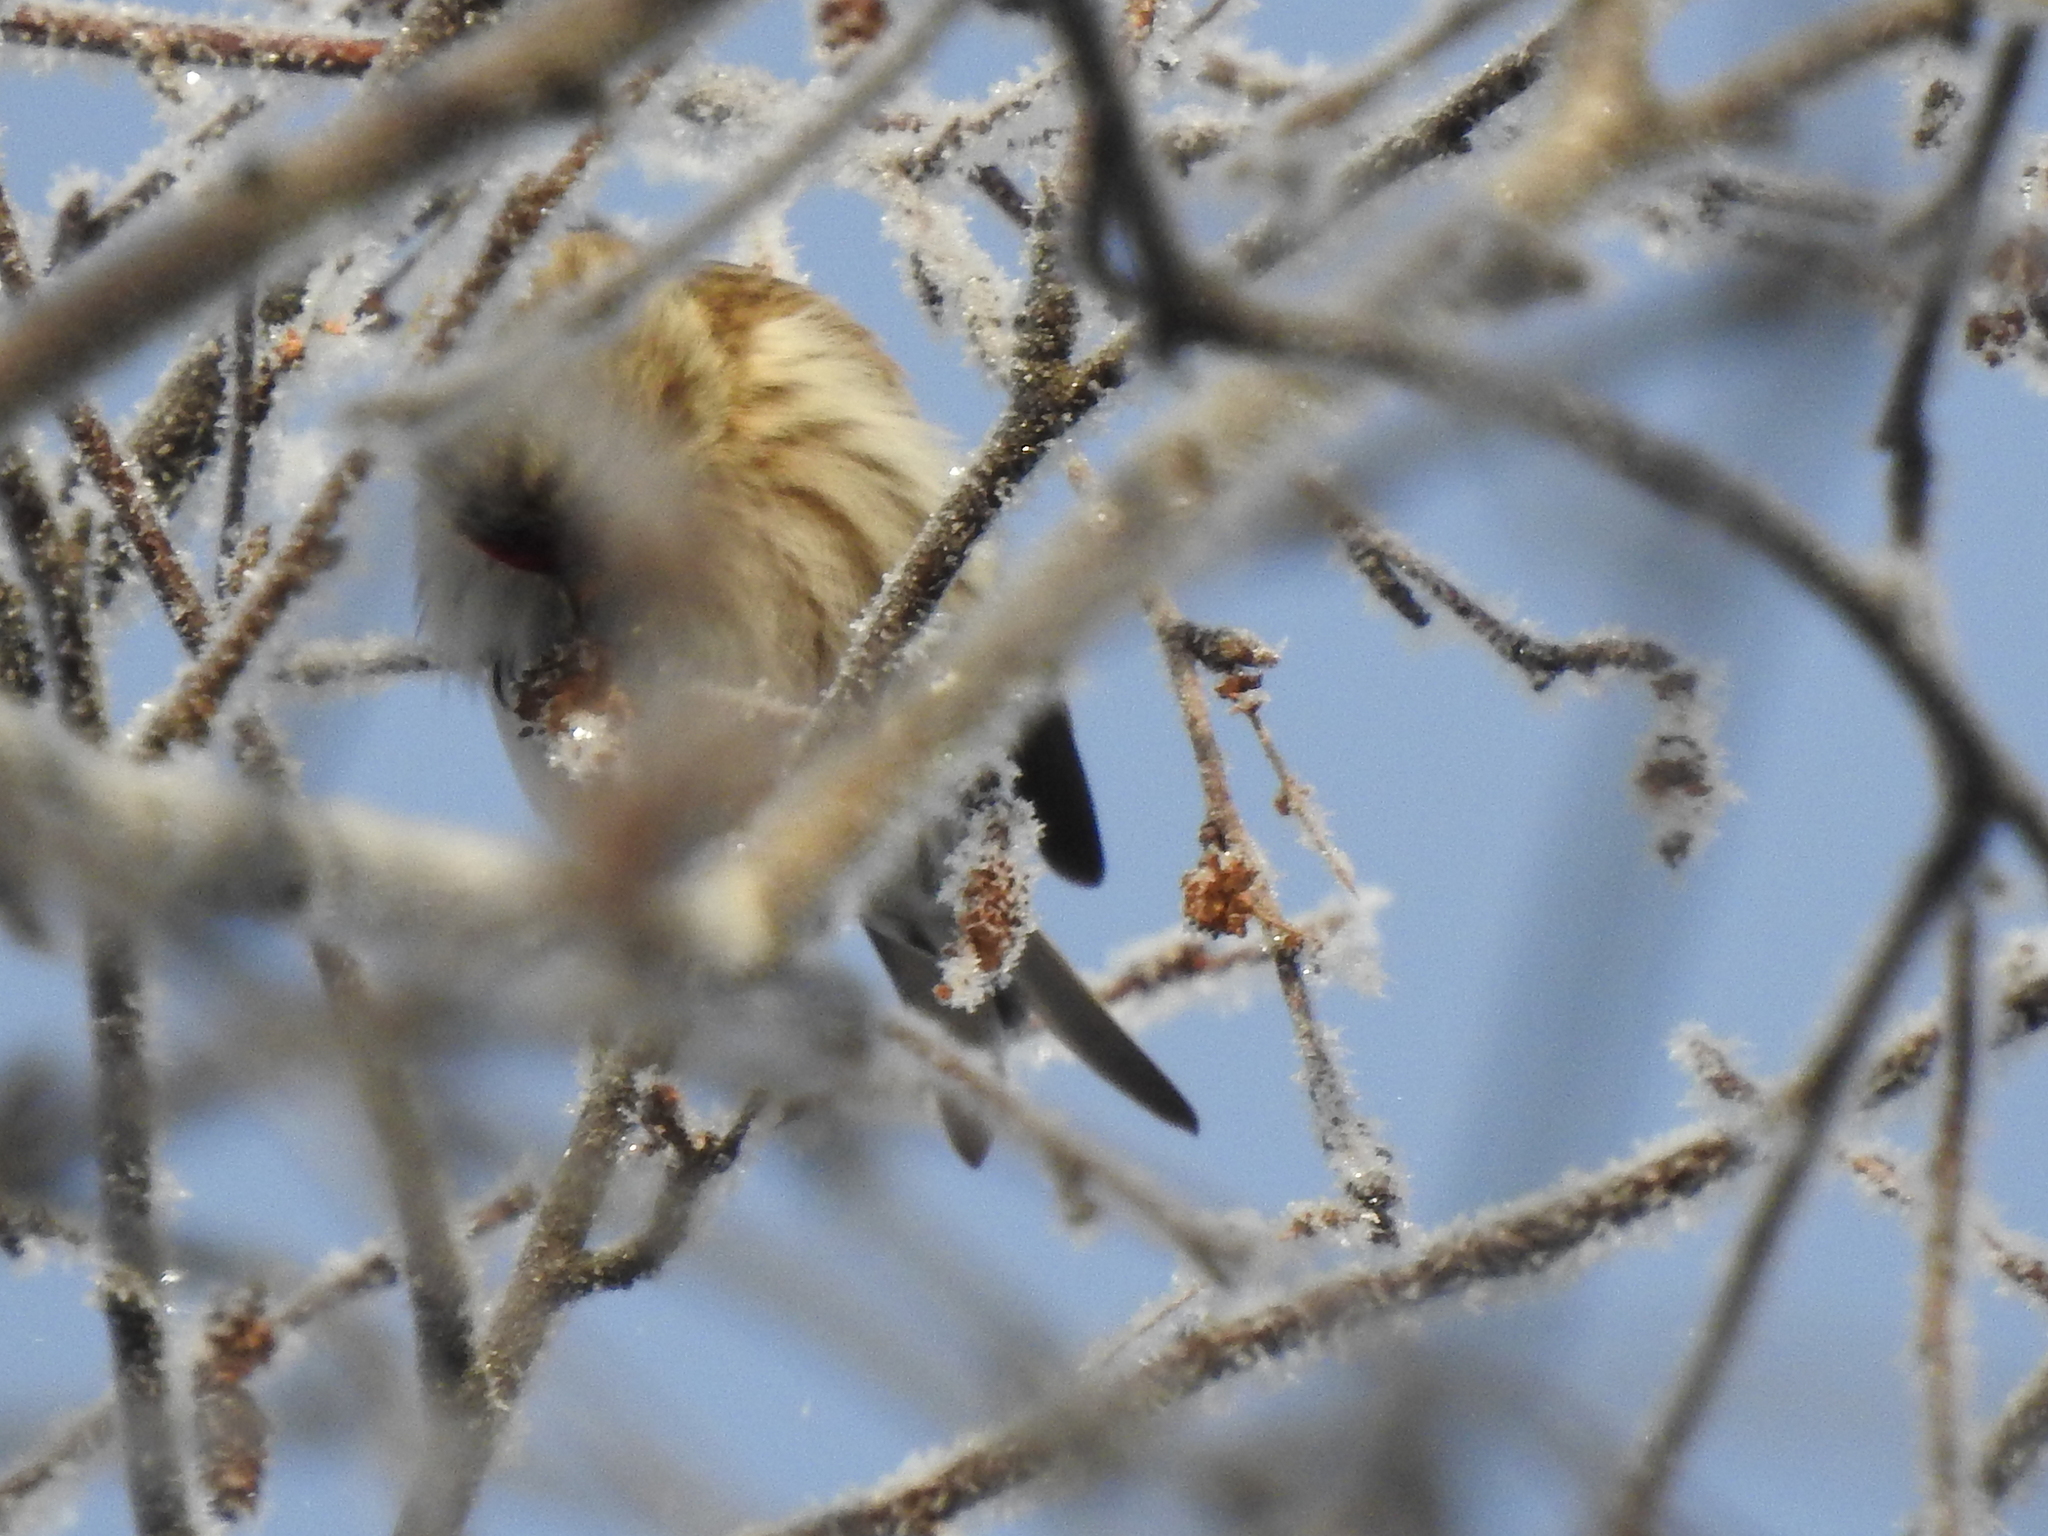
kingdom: Animalia
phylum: Chordata
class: Aves
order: Passeriformes
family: Fringillidae
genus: Acanthis
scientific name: Acanthis flammea
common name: Common redpoll
